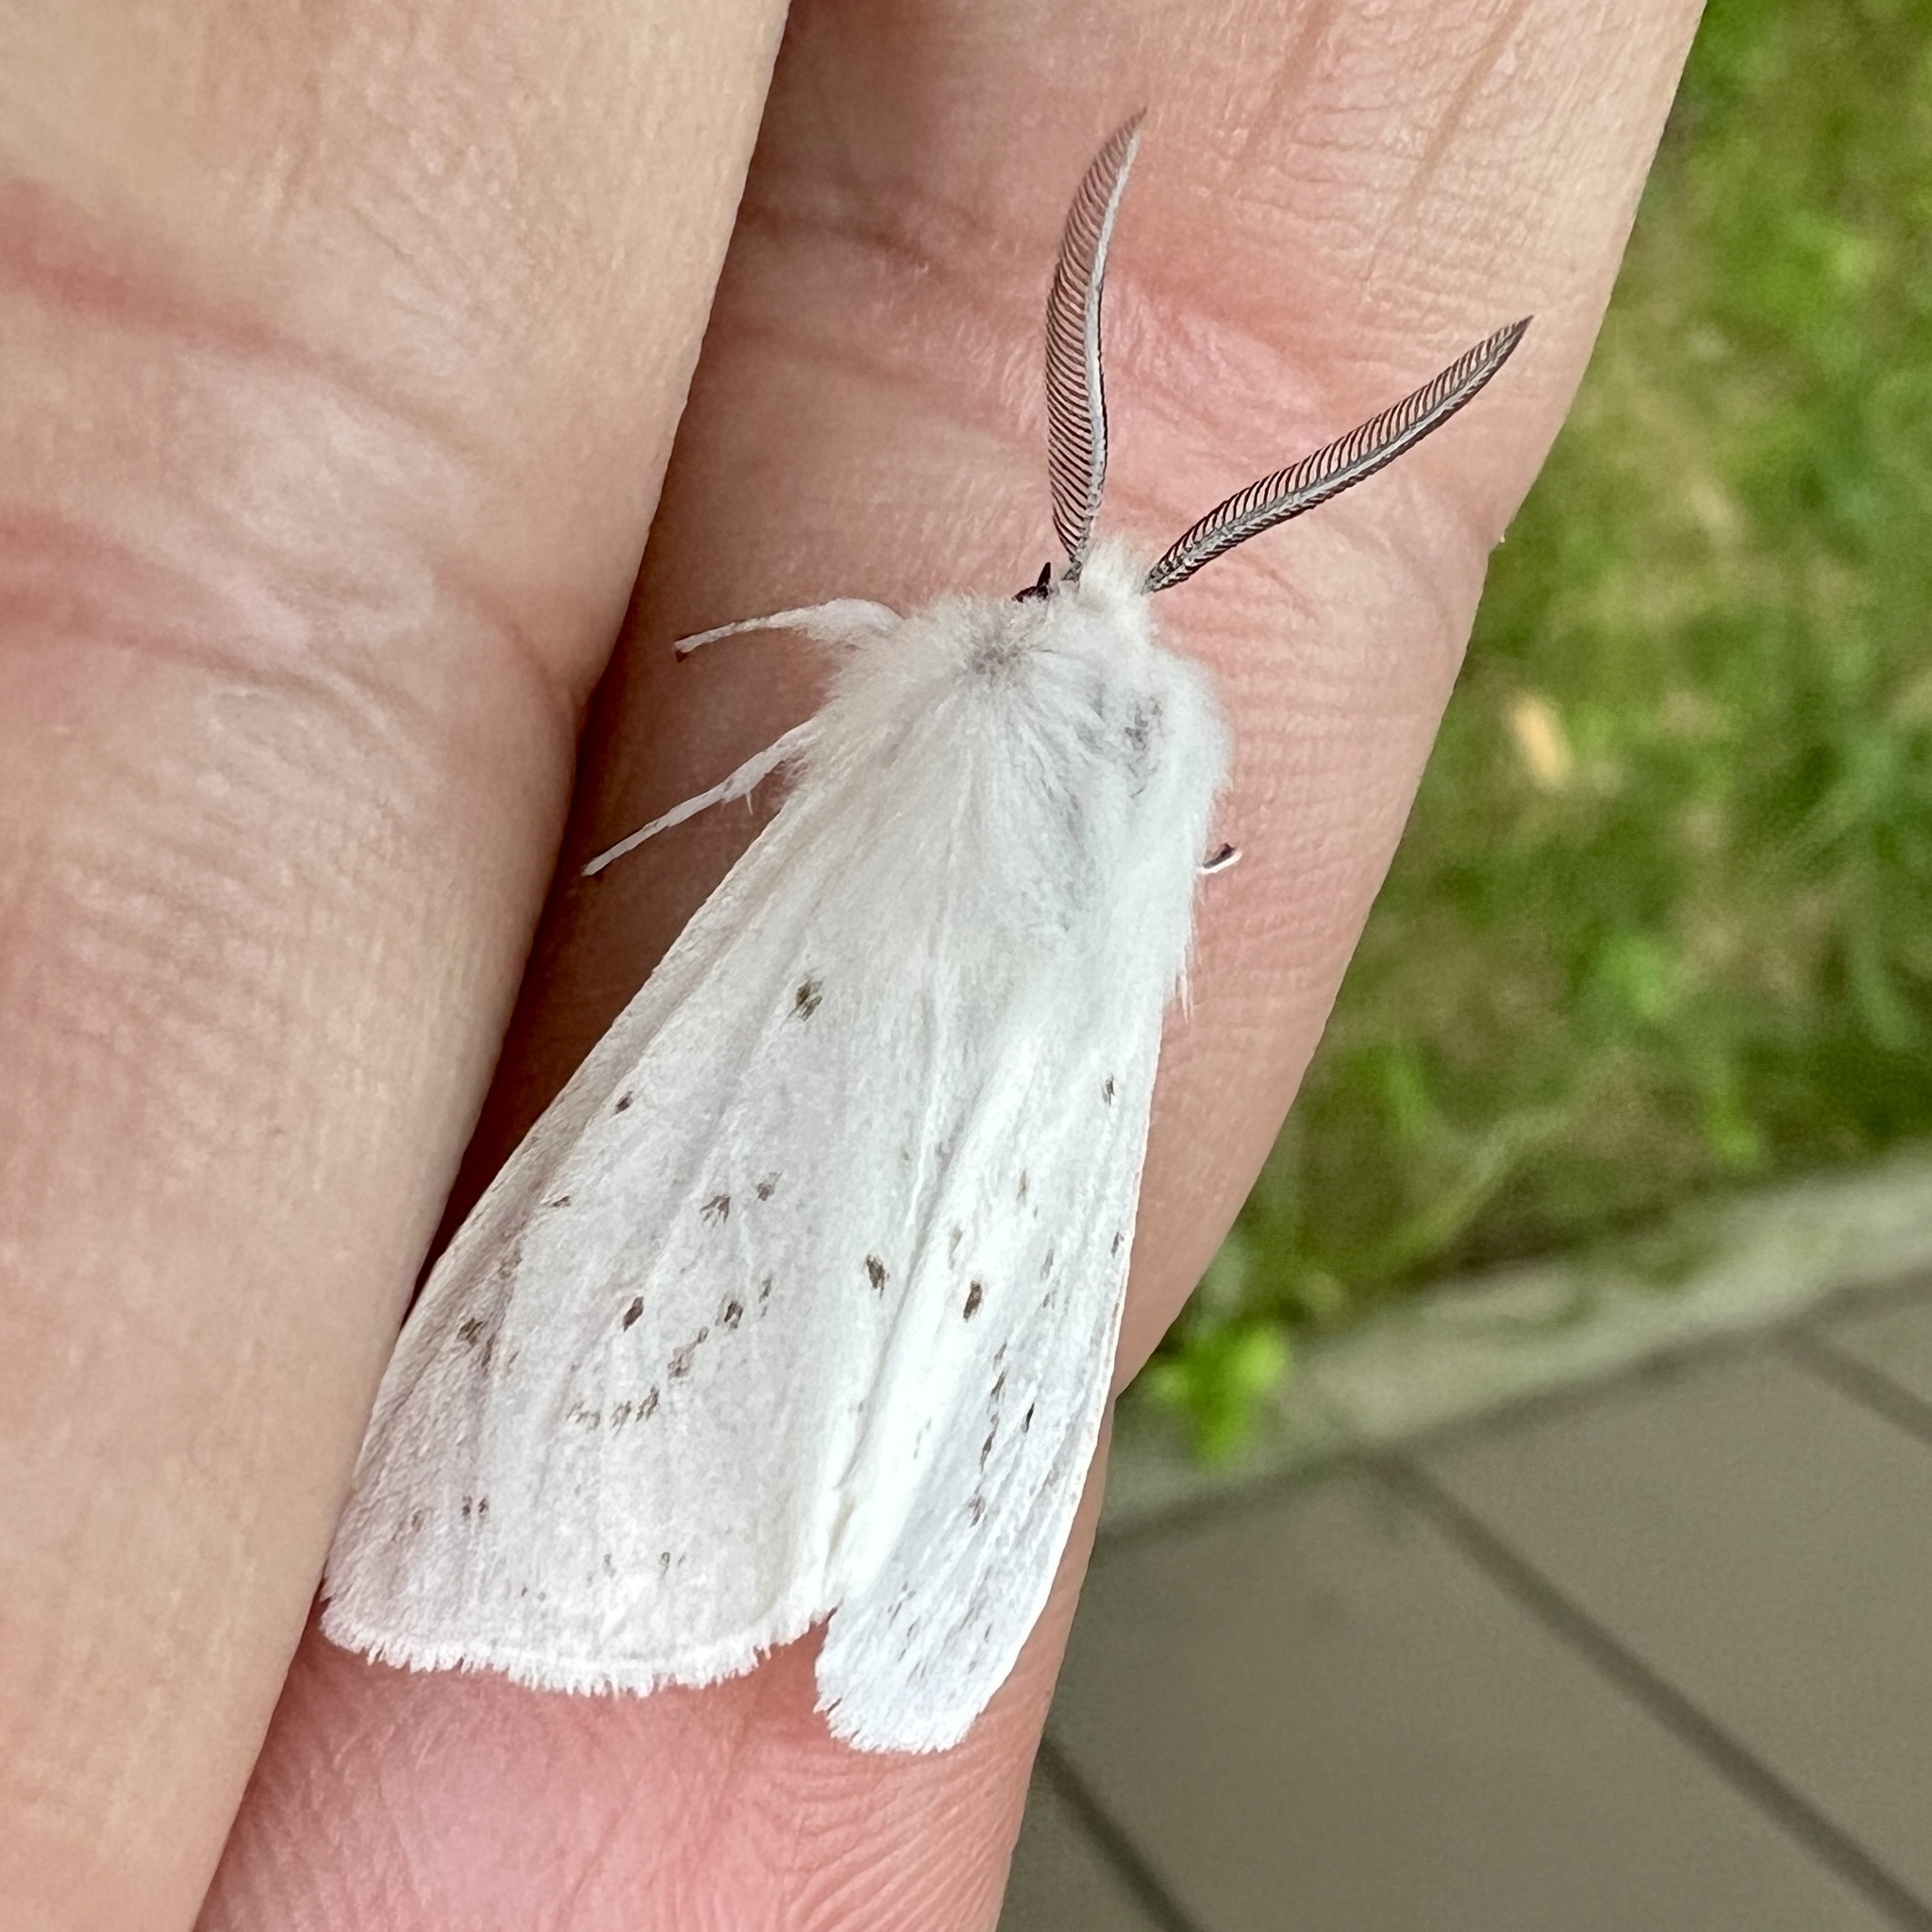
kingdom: Animalia
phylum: Arthropoda
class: Insecta
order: Lepidoptera
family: Erebidae
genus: Spilosoma
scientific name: Spilosoma congrua
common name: Agreeable tiger moth
